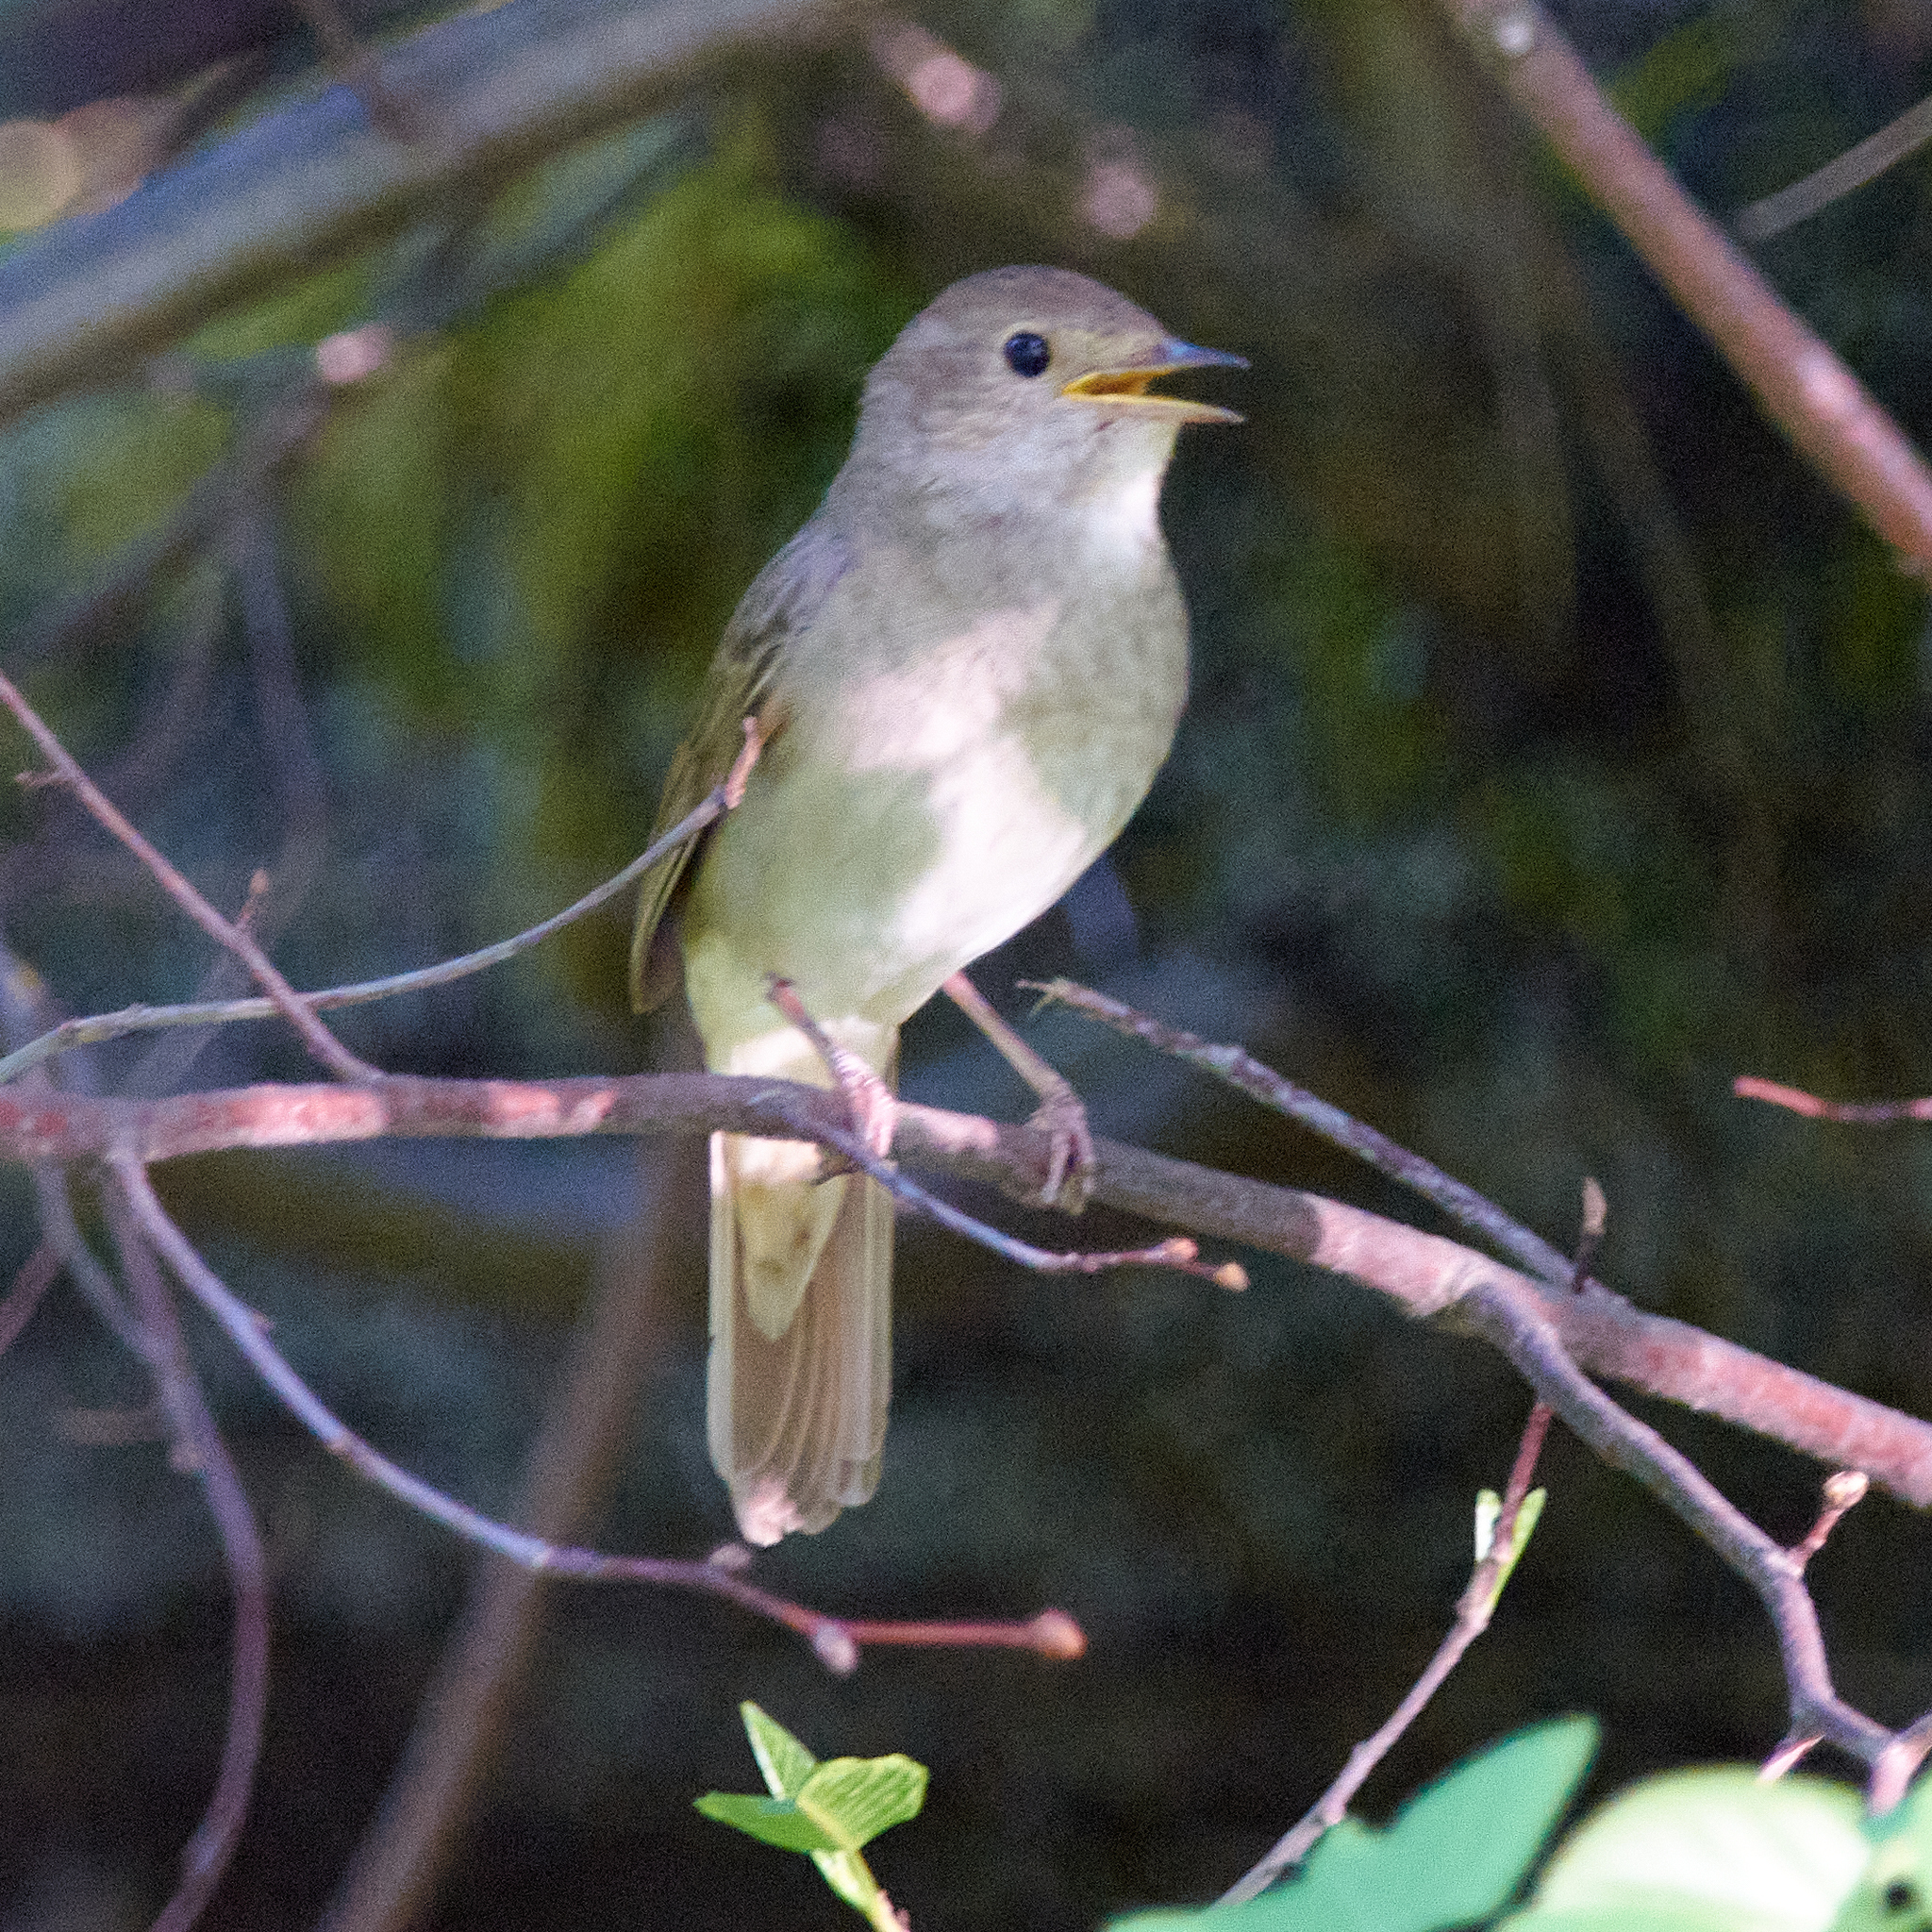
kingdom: Animalia
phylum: Chordata
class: Aves
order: Passeriformes
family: Muscicapidae
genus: Luscinia
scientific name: Luscinia luscinia
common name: Thrush nightingale
